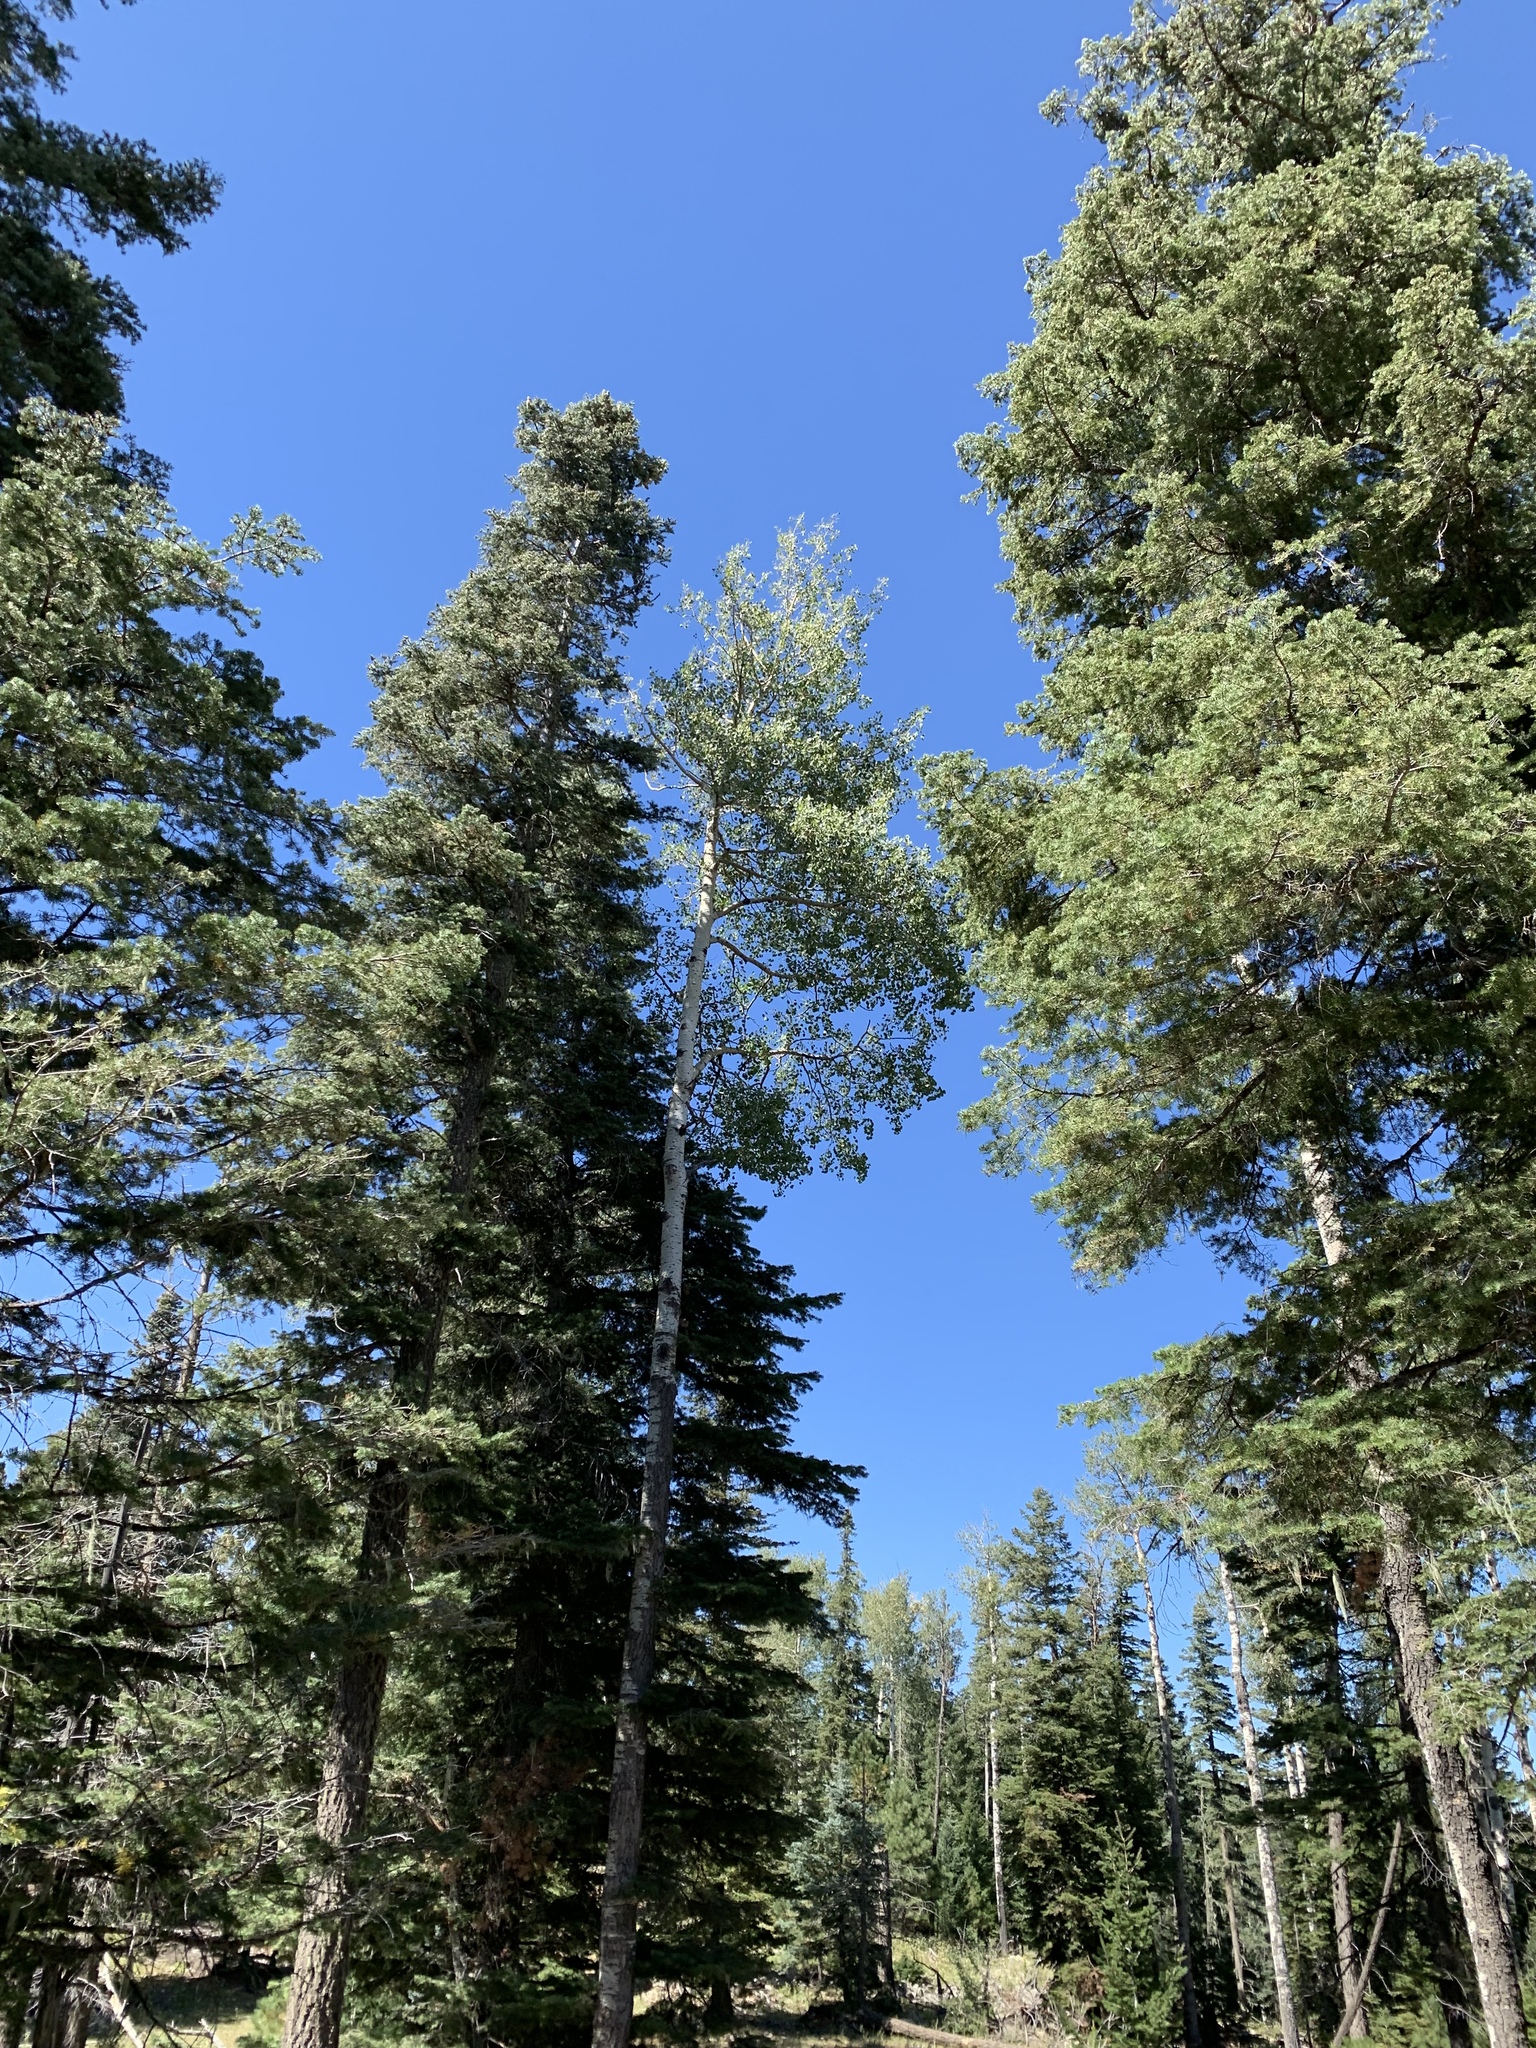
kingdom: Plantae
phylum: Tracheophyta
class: Magnoliopsida
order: Malpighiales
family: Salicaceae
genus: Populus
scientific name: Populus tremuloides
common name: Quaking aspen
